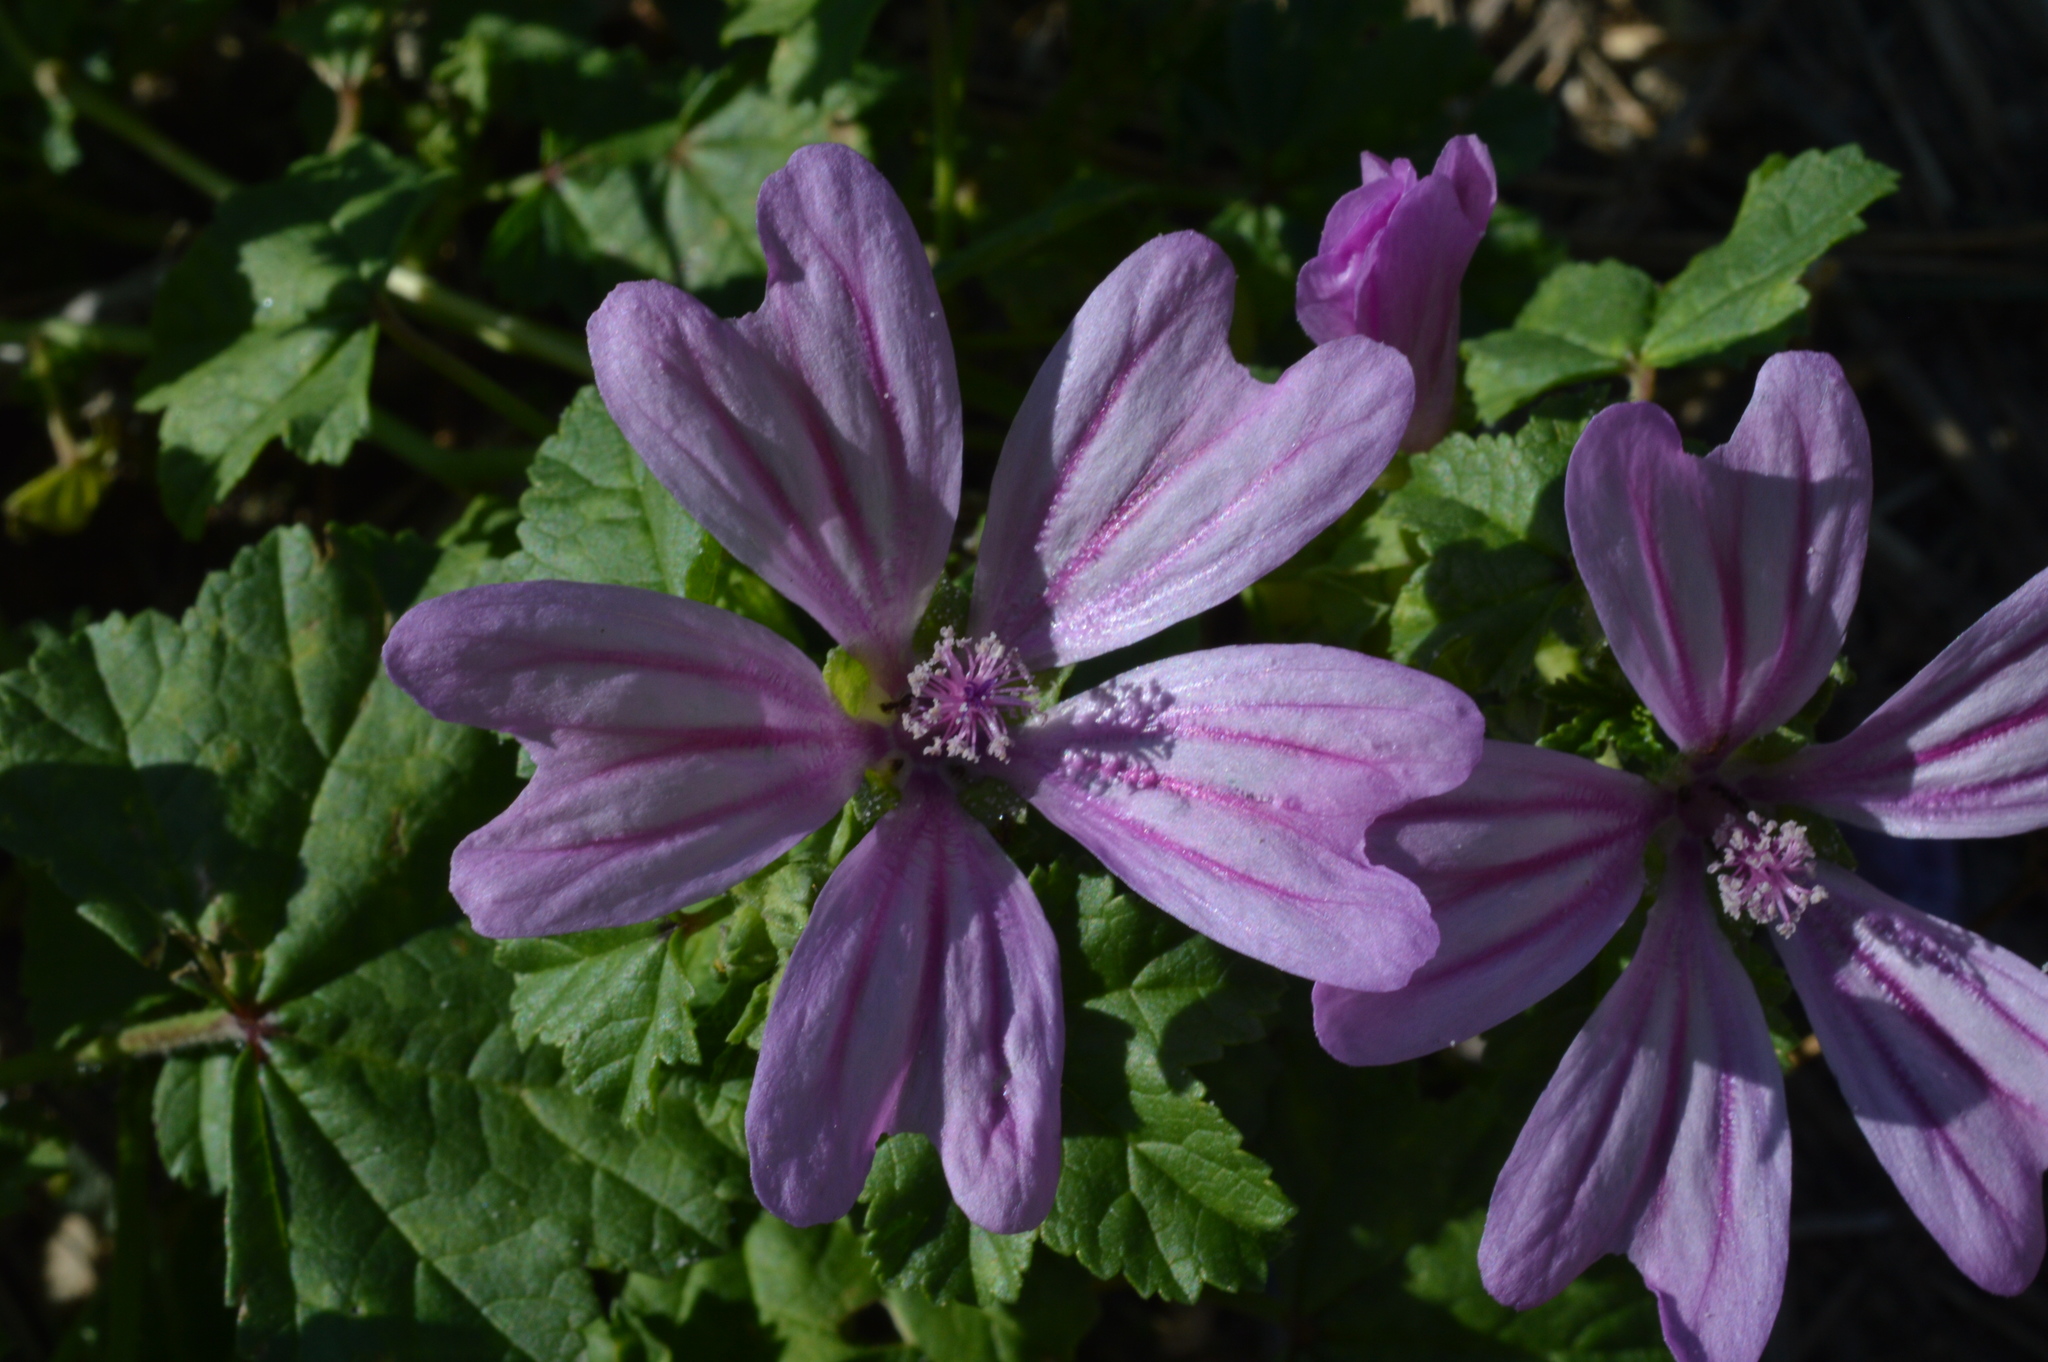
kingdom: Plantae
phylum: Tracheophyta
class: Magnoliopsida
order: Malvales
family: Malvaceae
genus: Malva
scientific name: Malva sylvestris
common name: Common mallow
